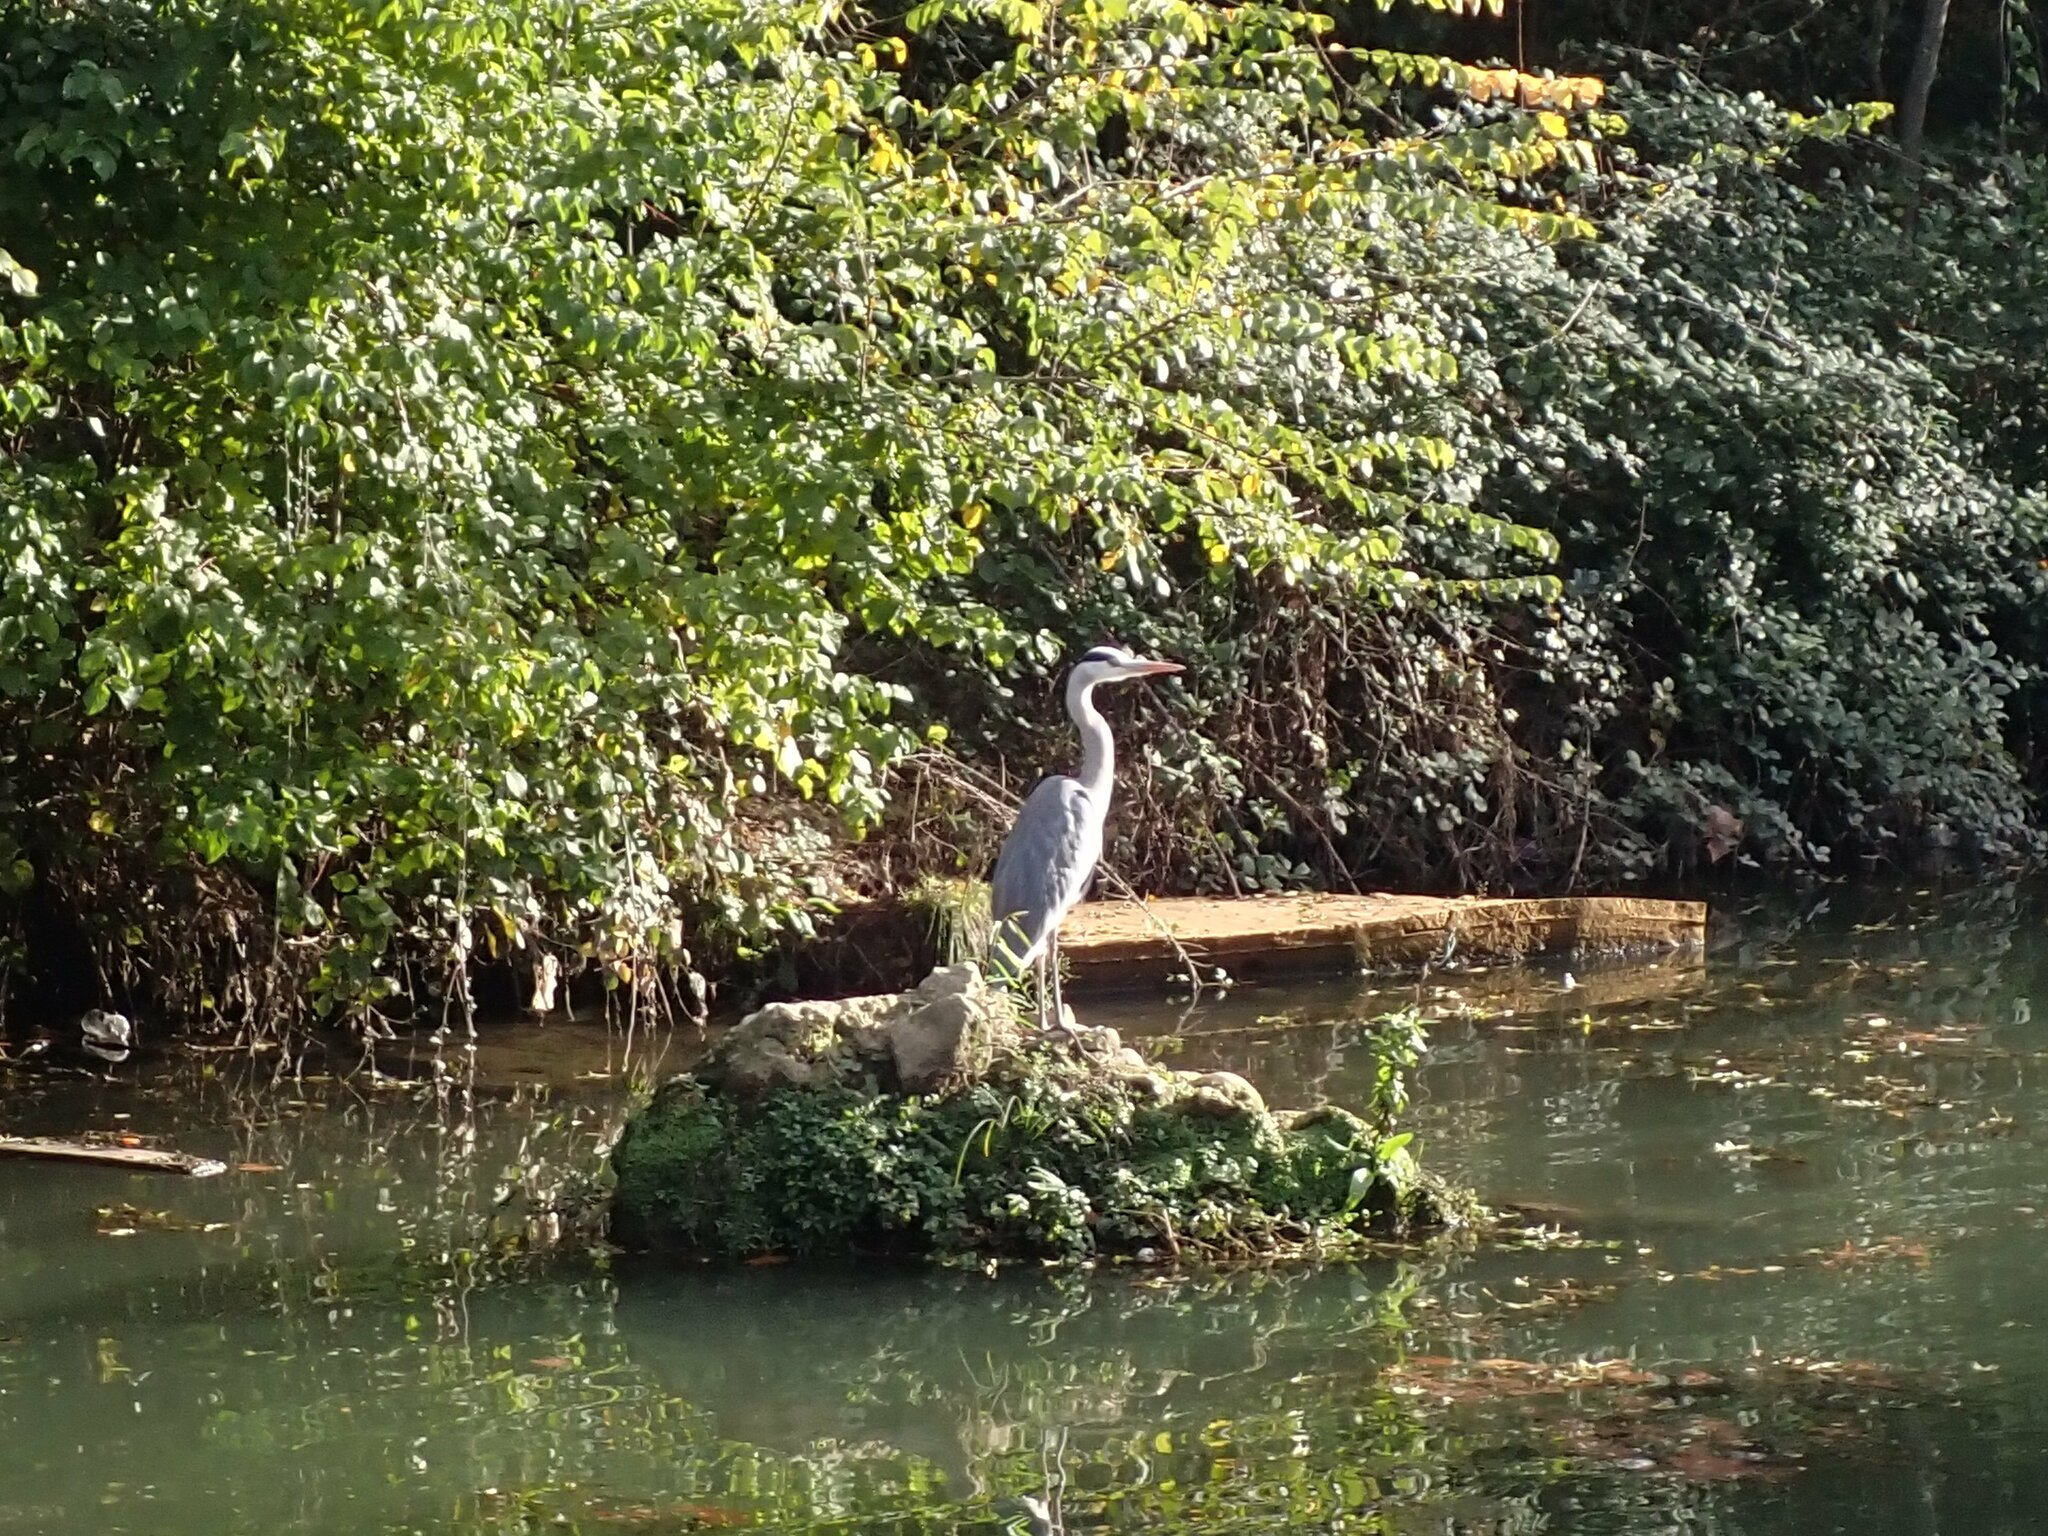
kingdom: Animalia
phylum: Chordata
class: Aves
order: Pelecaniformes
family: Ardeidae
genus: Ardea
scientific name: Ardea cinerea
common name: Grey heron
